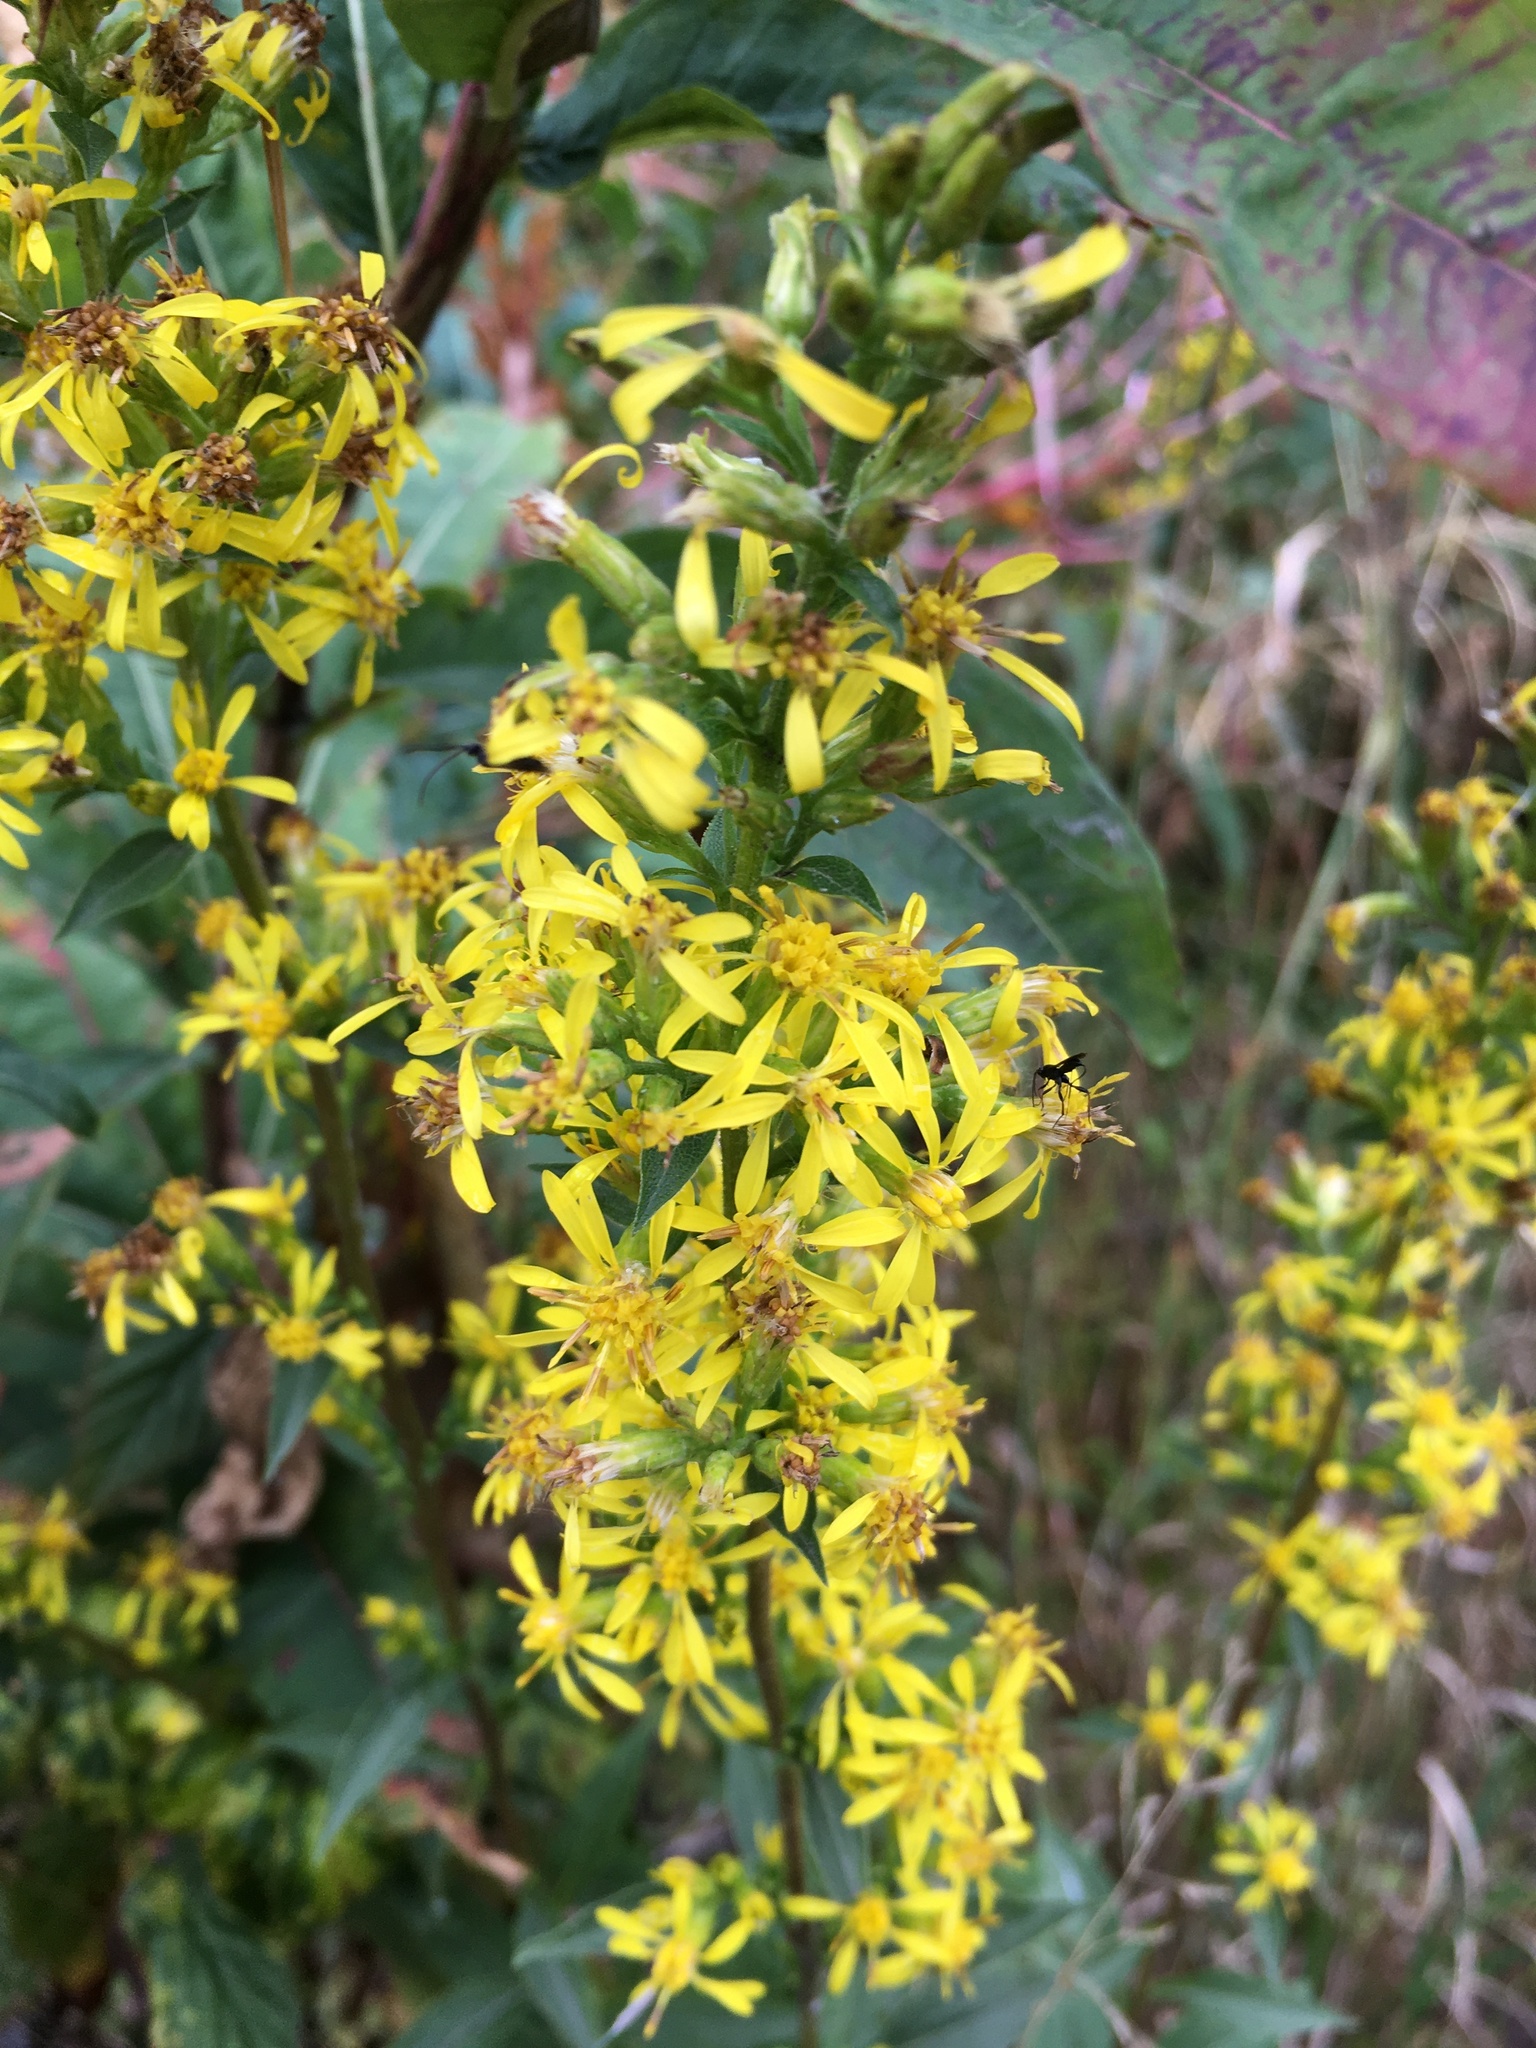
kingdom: Plantae
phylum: Tracheophyta
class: Magnoliopsida
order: Asterales
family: Asteraceae
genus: Solidago
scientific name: Solidago virgaurea
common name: Goldenrod
